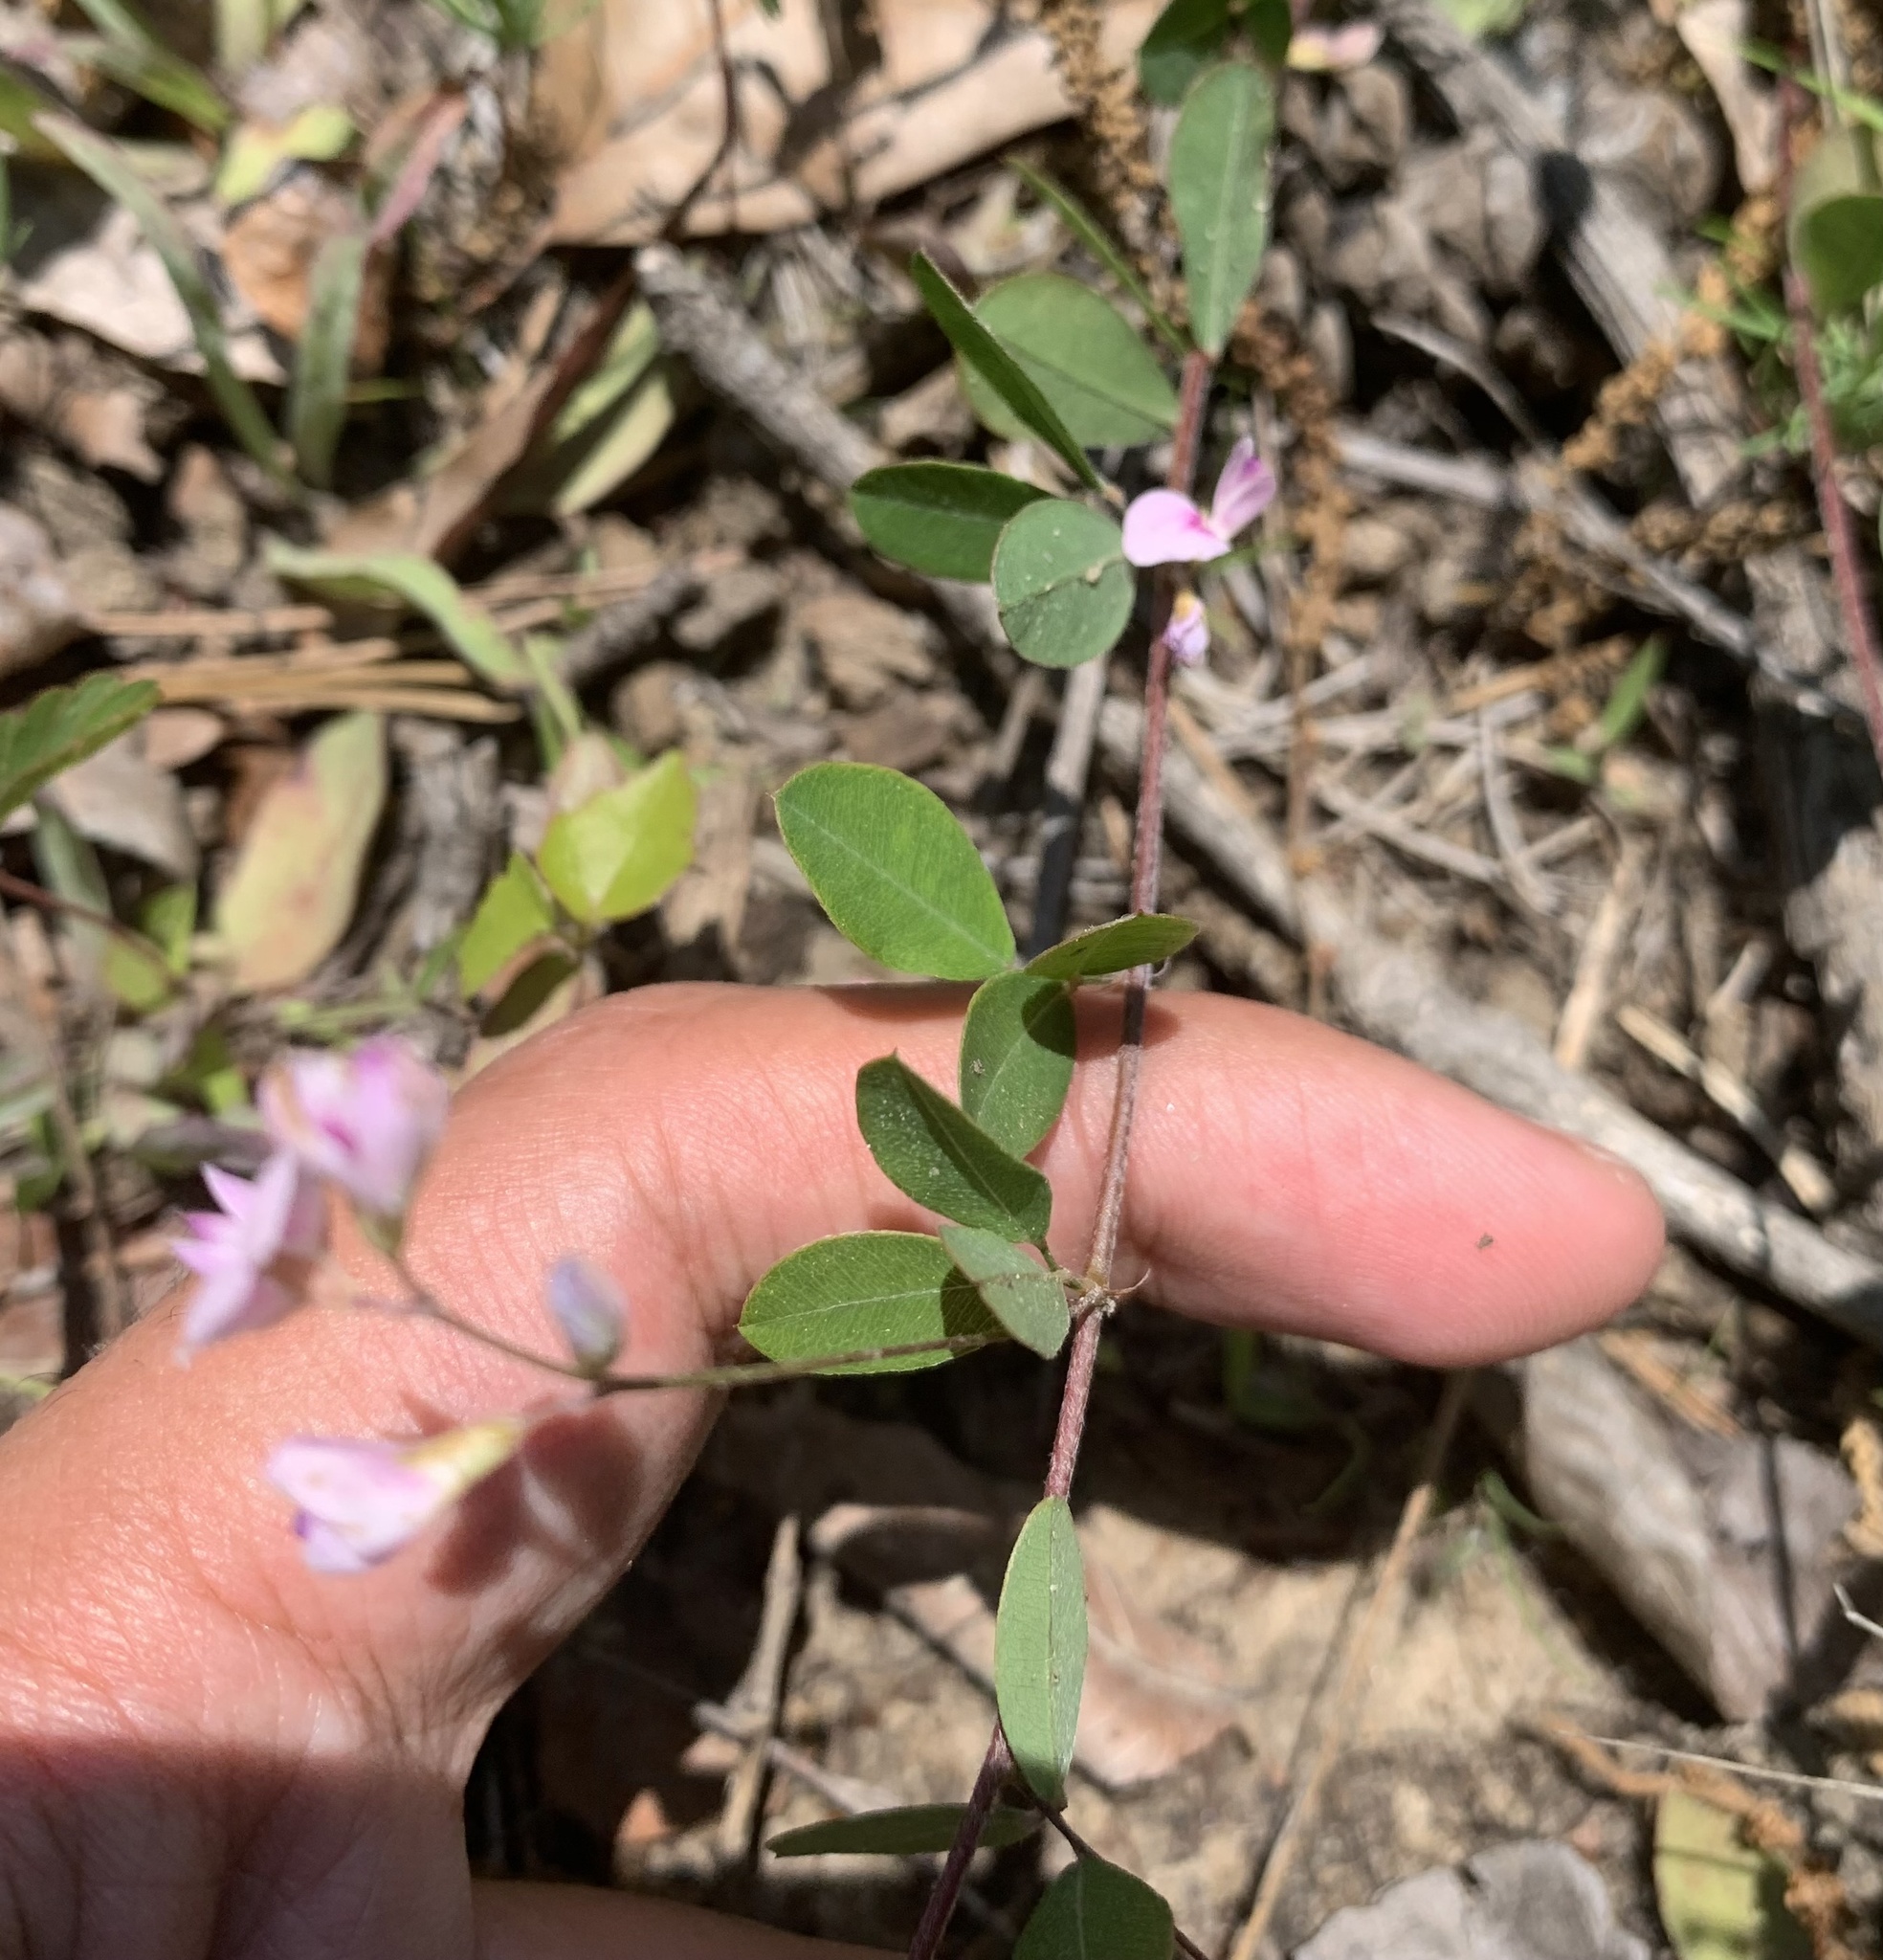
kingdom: Plantae
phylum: Tracheophyta
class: Magnoliopsida
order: Fabales
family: Fabaceae
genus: Lespedeza
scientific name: Lespedeza repens
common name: Creeping bush-clover
